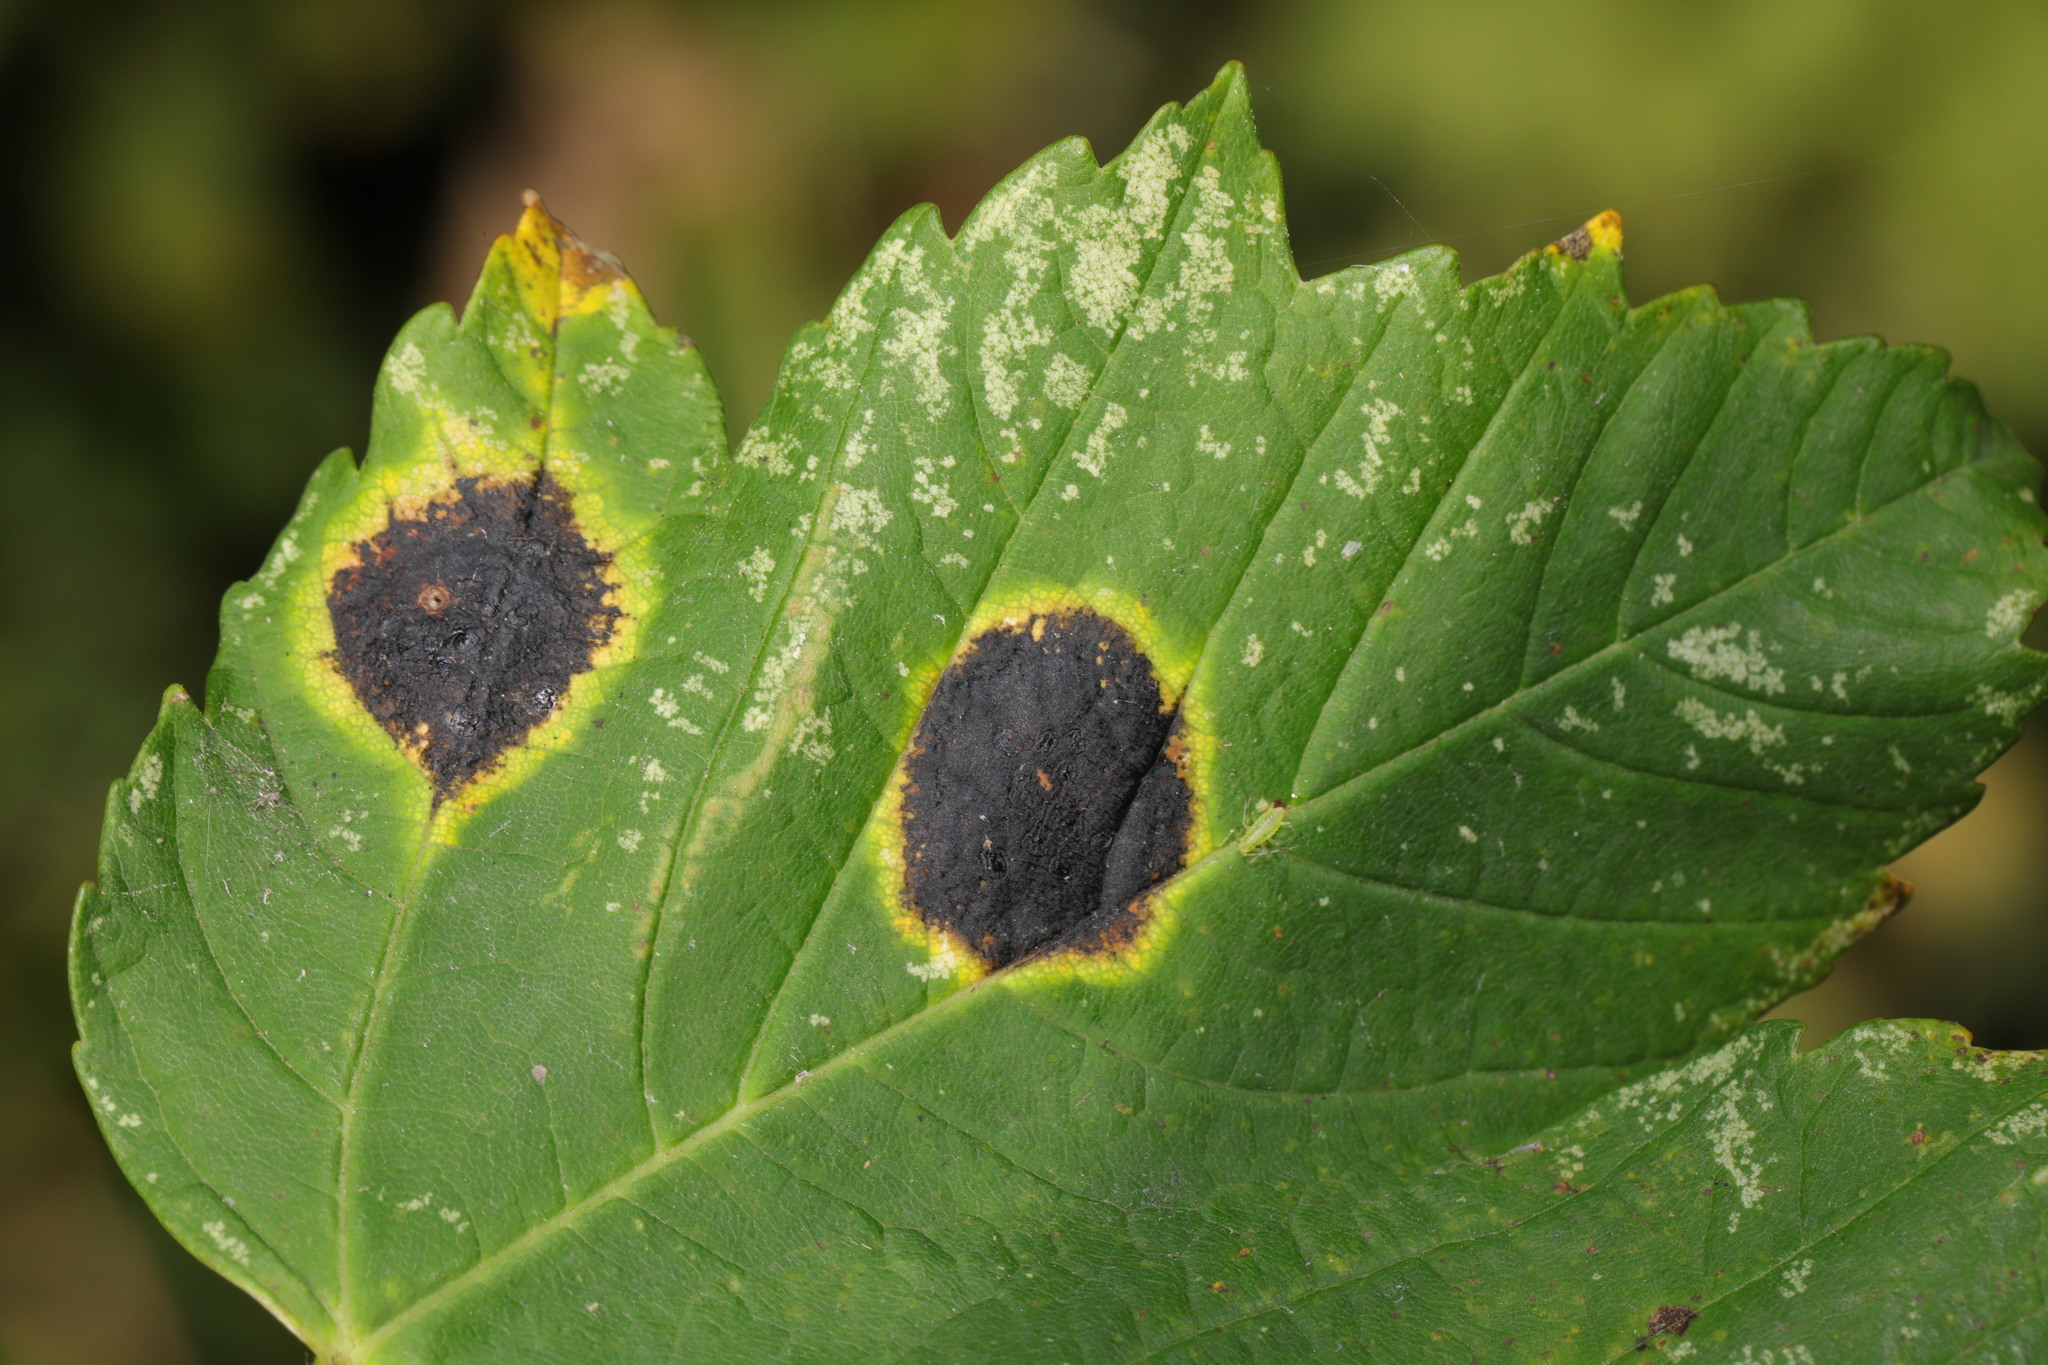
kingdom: Fungi
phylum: Ascomycota
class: Leotiomycetes
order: Rhytismatales
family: Rhytismataceae
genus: Rhytisma
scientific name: Rhytisma acerinum
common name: European tar spot
